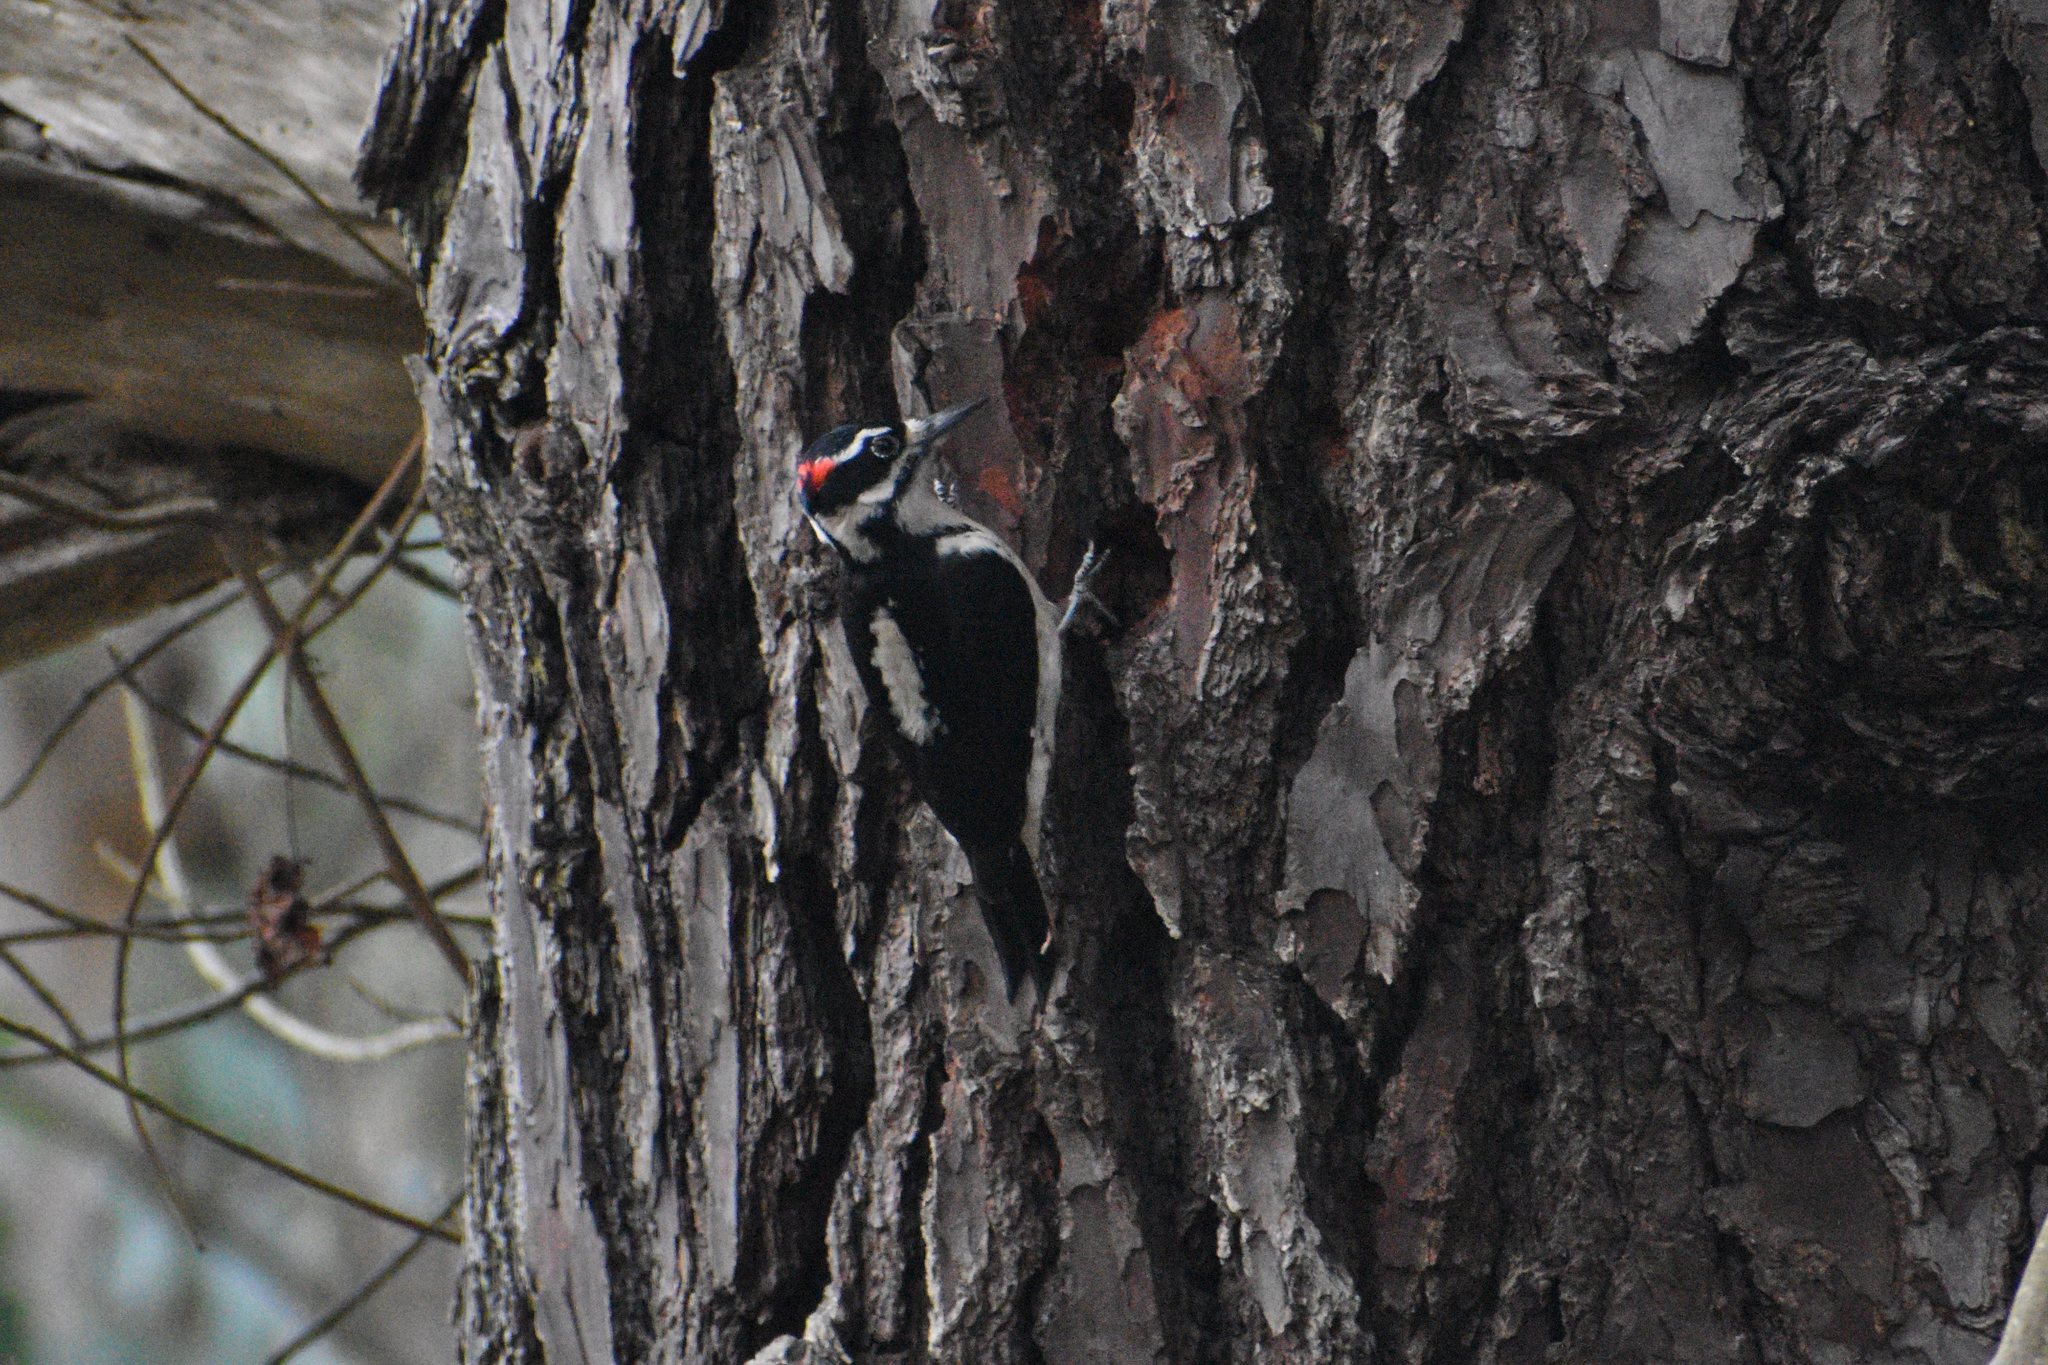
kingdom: Animalia
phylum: Chordata
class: Aves
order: Piciformes
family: Picidae
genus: Leuconotopicus
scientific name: Leuconotopicus villosus
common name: Hairy woodpecker
